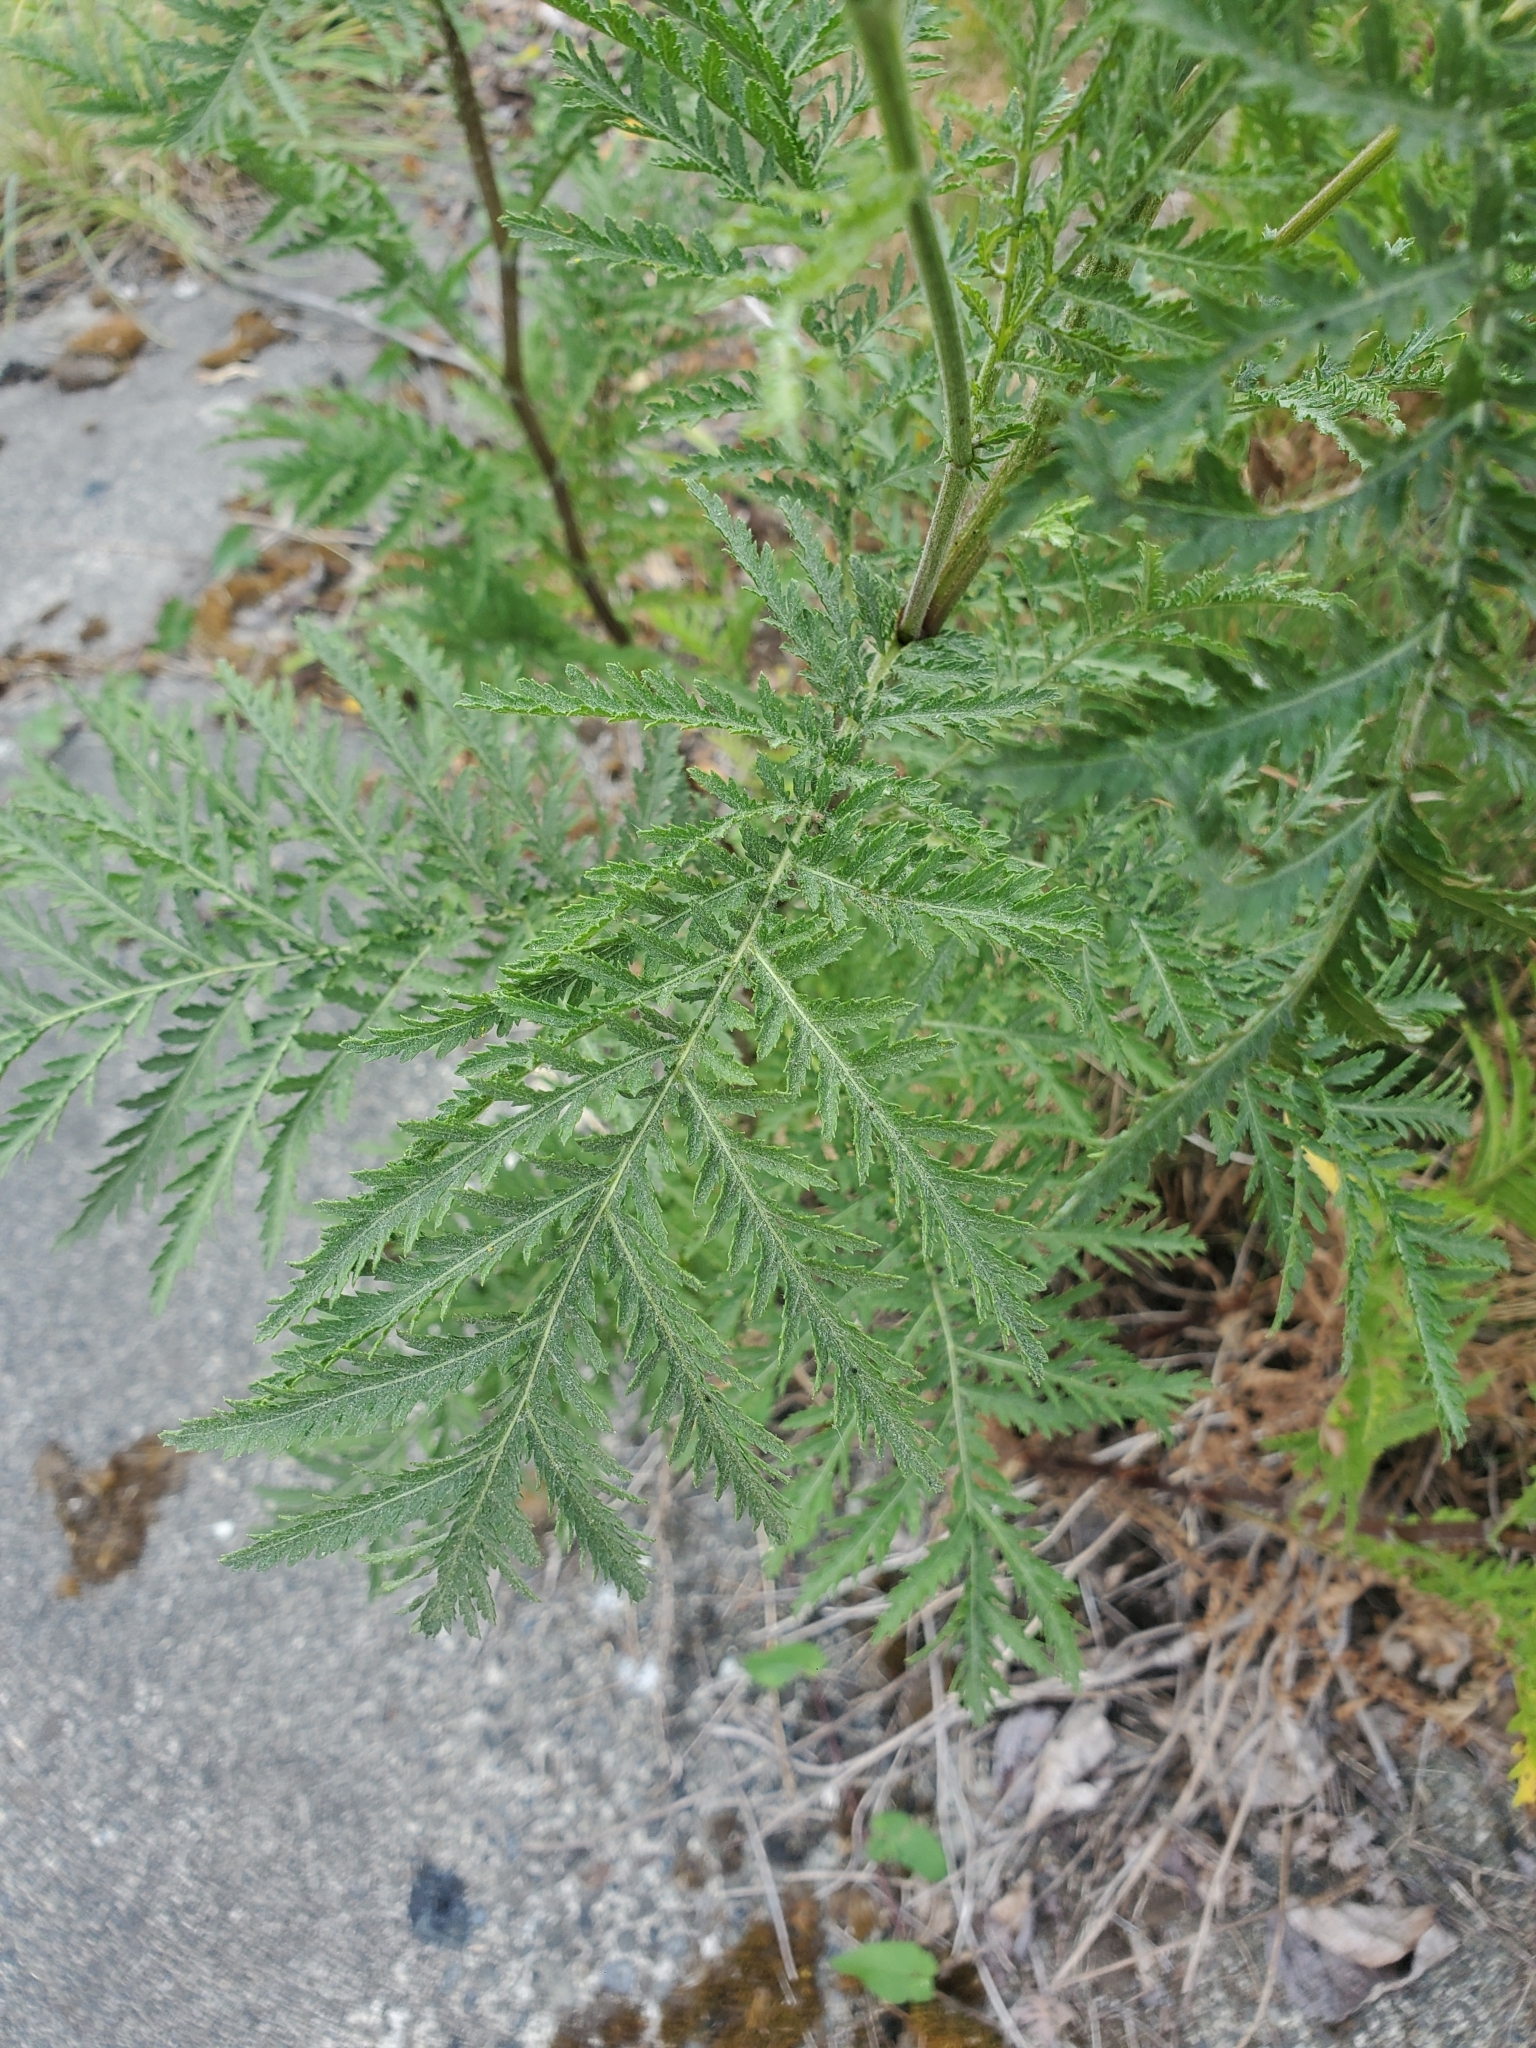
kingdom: Plantae
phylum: Tracheophyta
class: Magnoliopsida
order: Asterales
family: Asteraceae
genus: Tanacetum
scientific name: Tanacetum vulgare
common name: Common tansy
